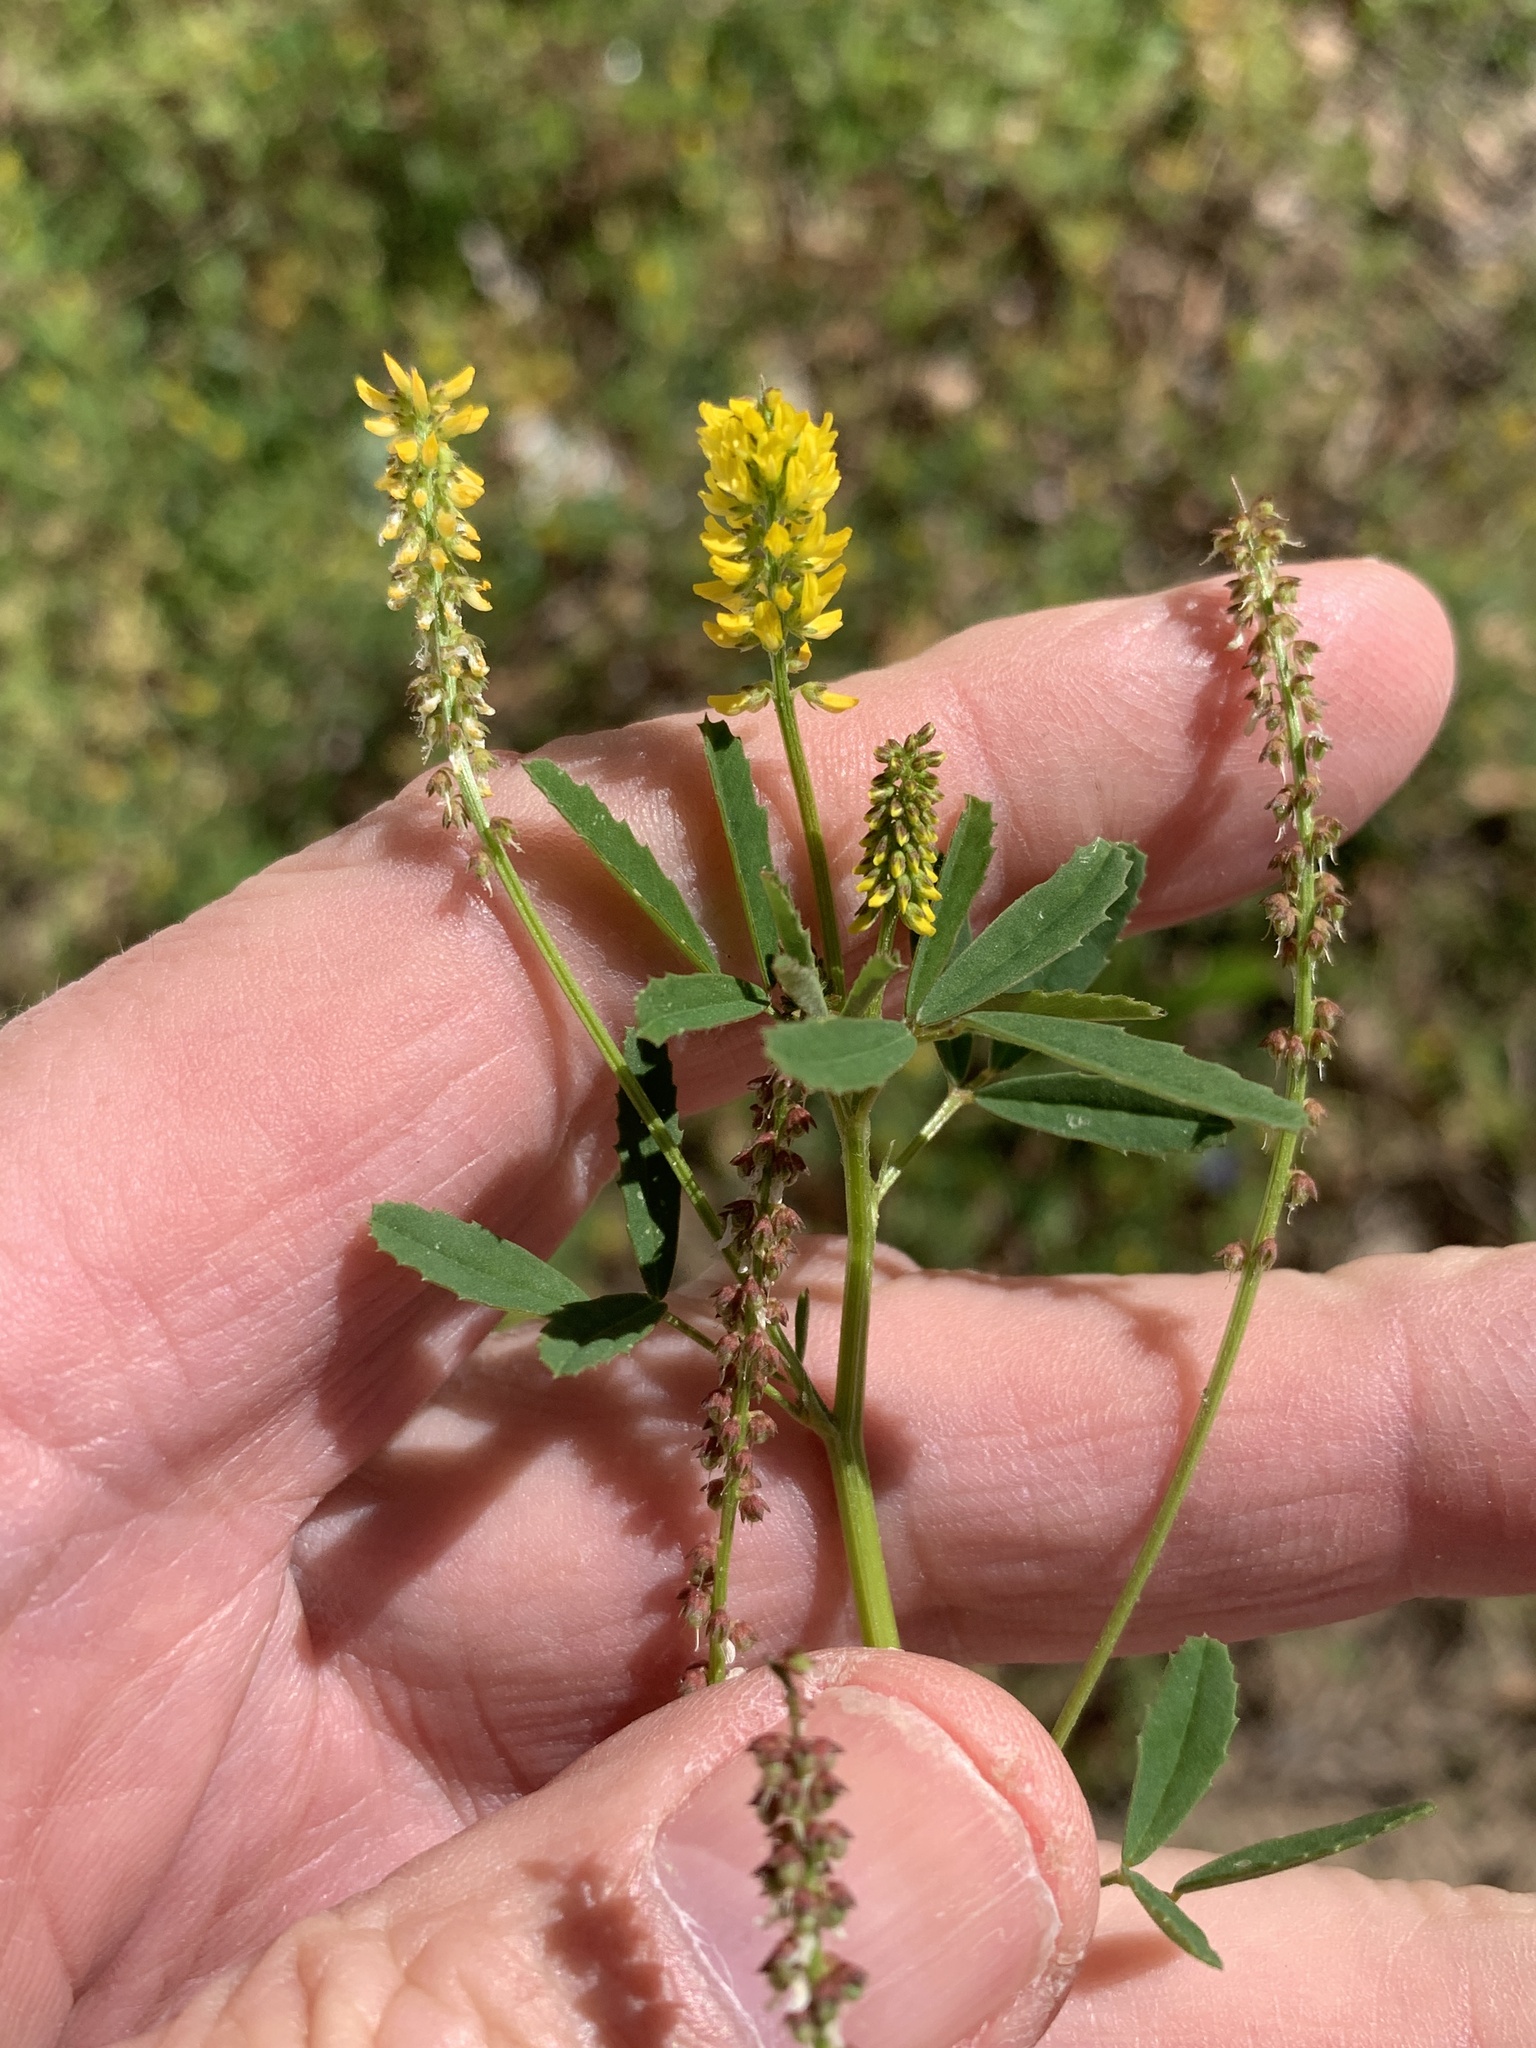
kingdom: Plantae
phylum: Tracheophyta
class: Magnoliopsida
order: Fabales
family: Fabaceae
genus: Melilotus
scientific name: Melilotus indicus
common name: Small melilot
